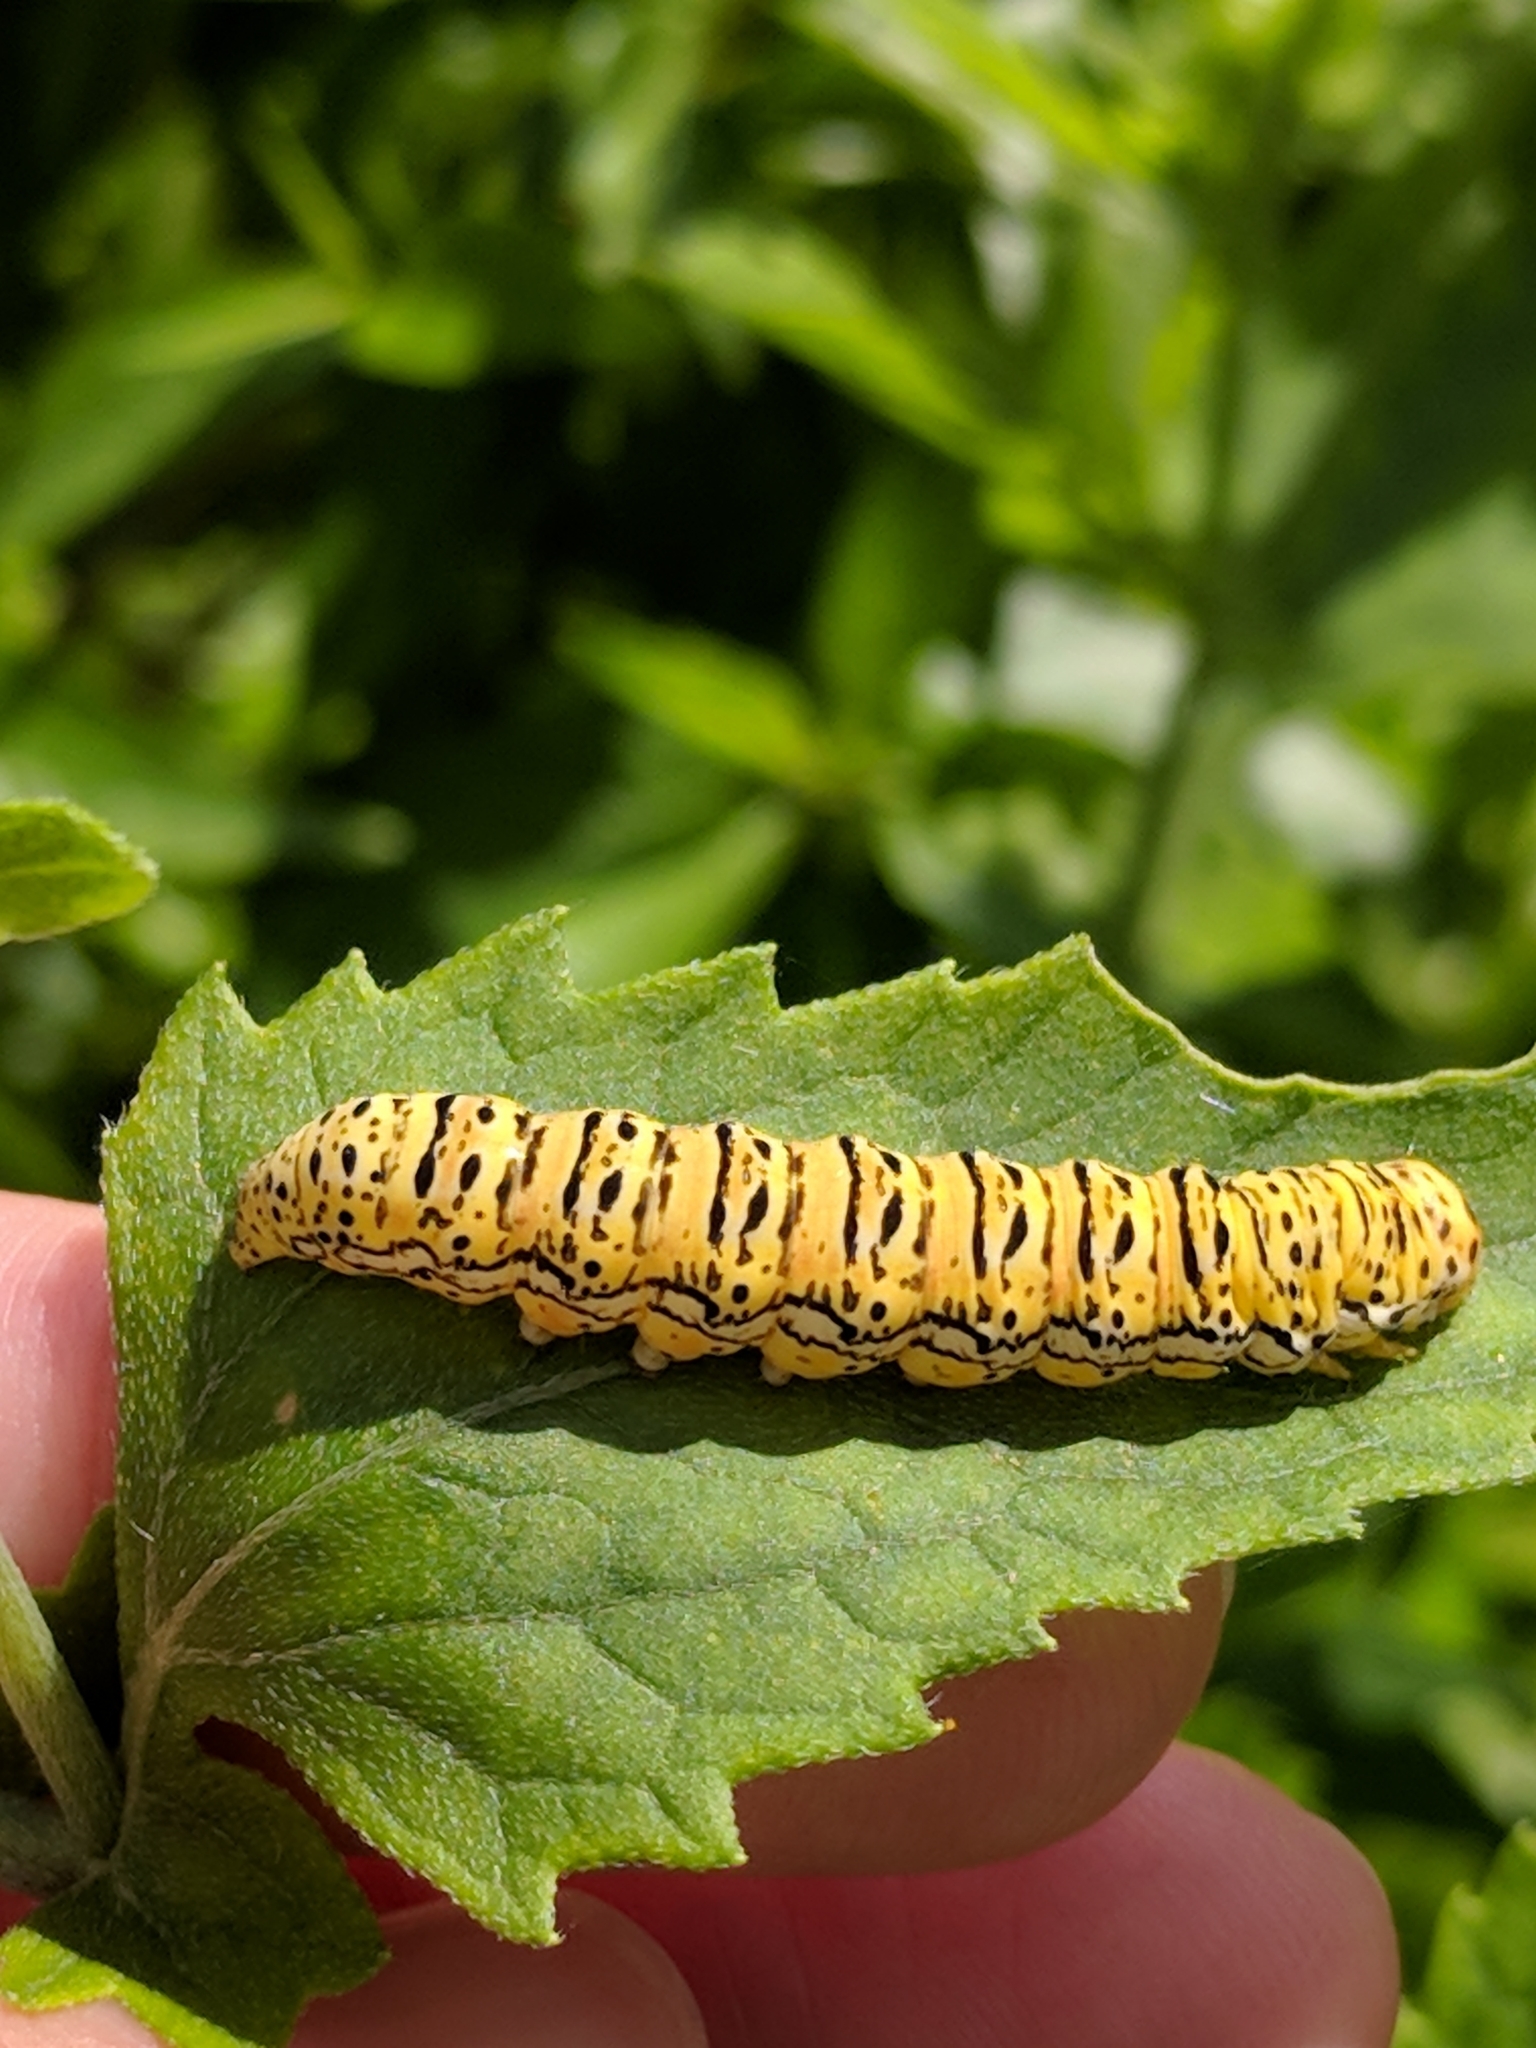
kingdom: Animalia
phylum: Arthropoda
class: Insecta
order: Lepidoptera
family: Noctuidae
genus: Basilodes
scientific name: Basilodes chrysopis
